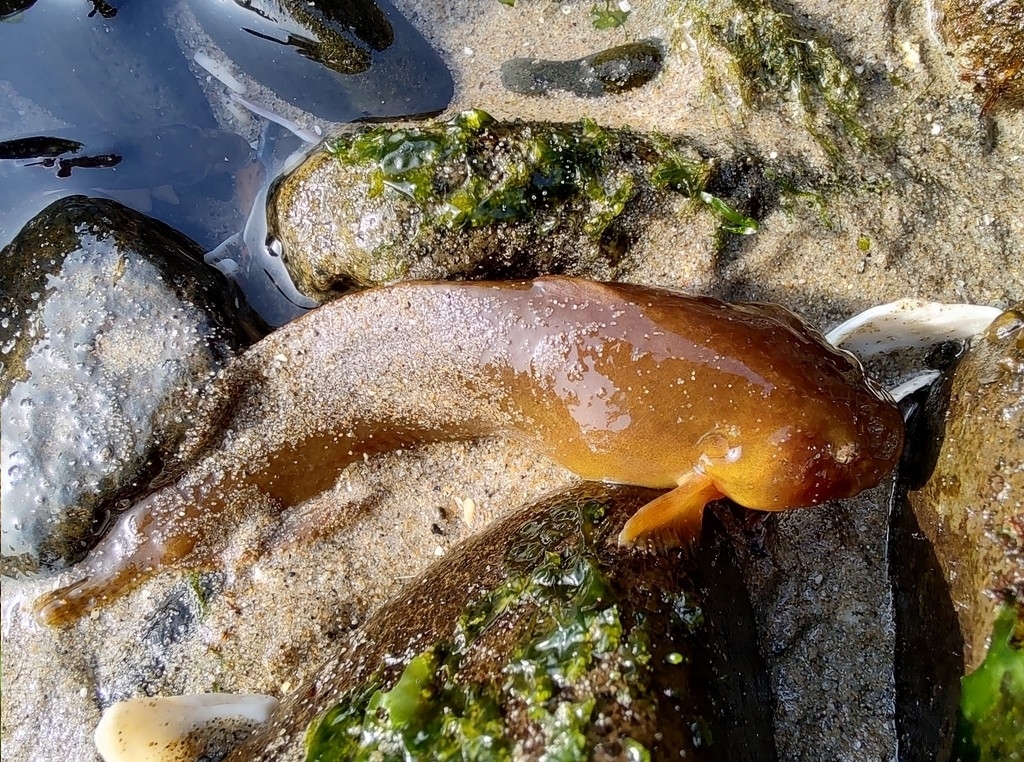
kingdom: Animalia
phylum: Chordata
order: Scorpaeniformes
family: Liparidae
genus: Liparis
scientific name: Liparis florae
